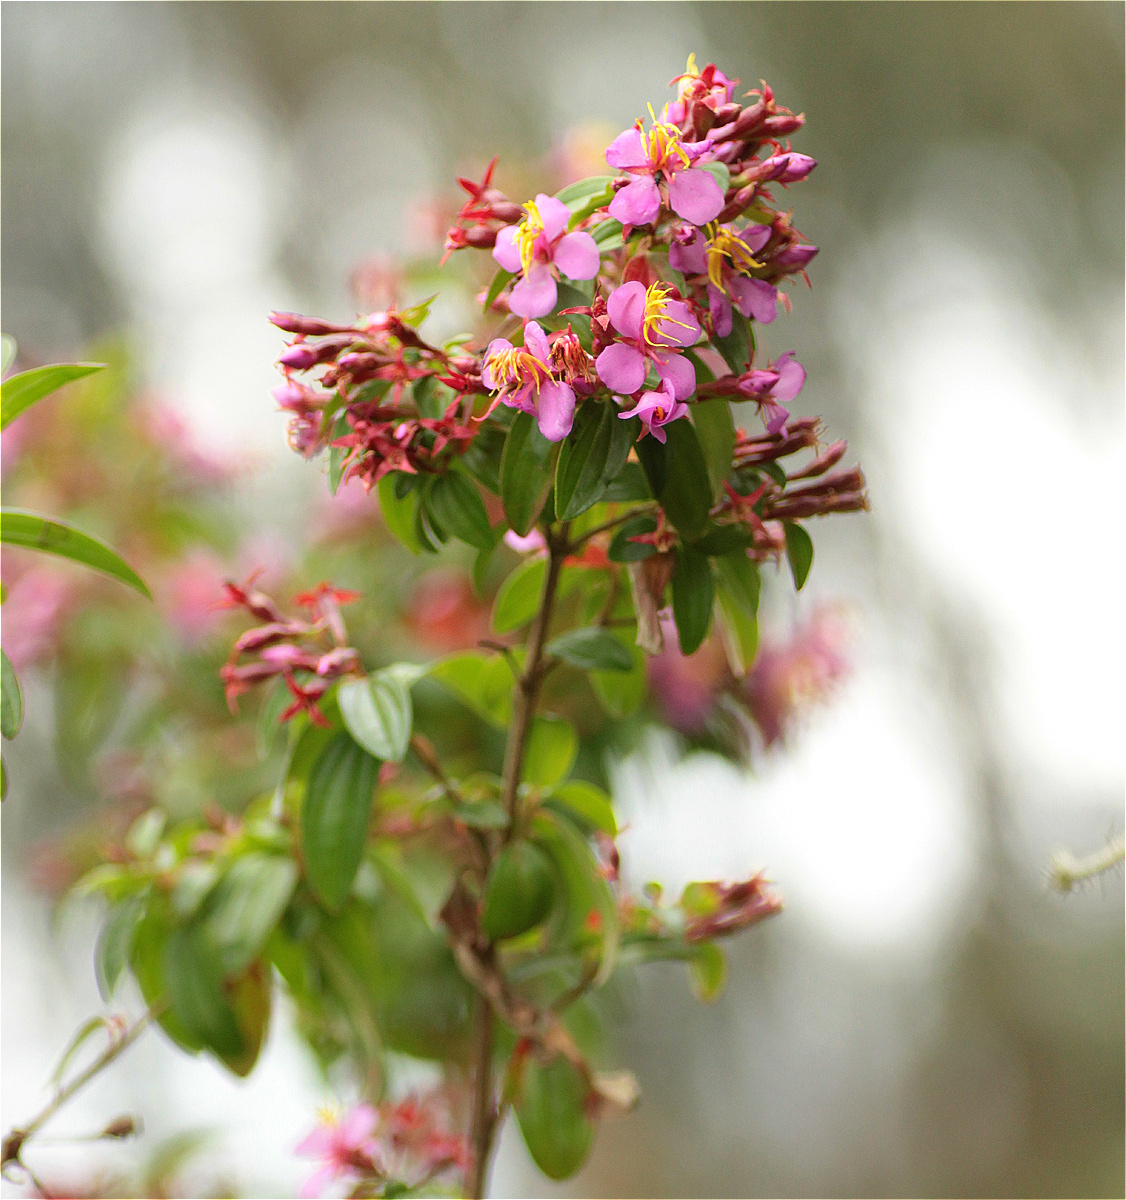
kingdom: Plantae
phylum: Tracheophyta
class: Magnoliopsida
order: Myrtales
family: Melastomataceae
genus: Monochaetum
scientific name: Monochaetum myrtoideum
